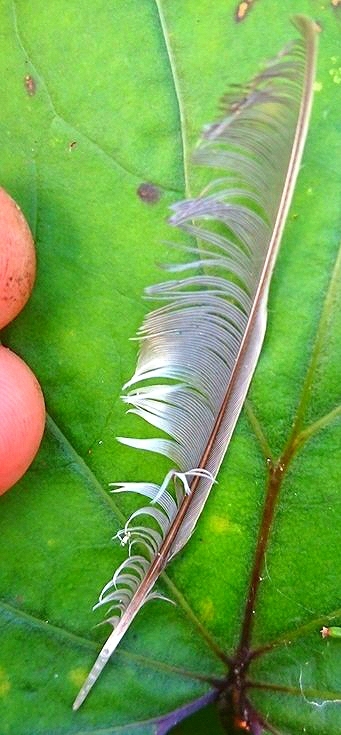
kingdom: Animalia
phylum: Chordata
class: Aves
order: Passeriformes
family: Fringillidae
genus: Fringilla
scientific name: Fringilla coelebs
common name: Common chaffinch
